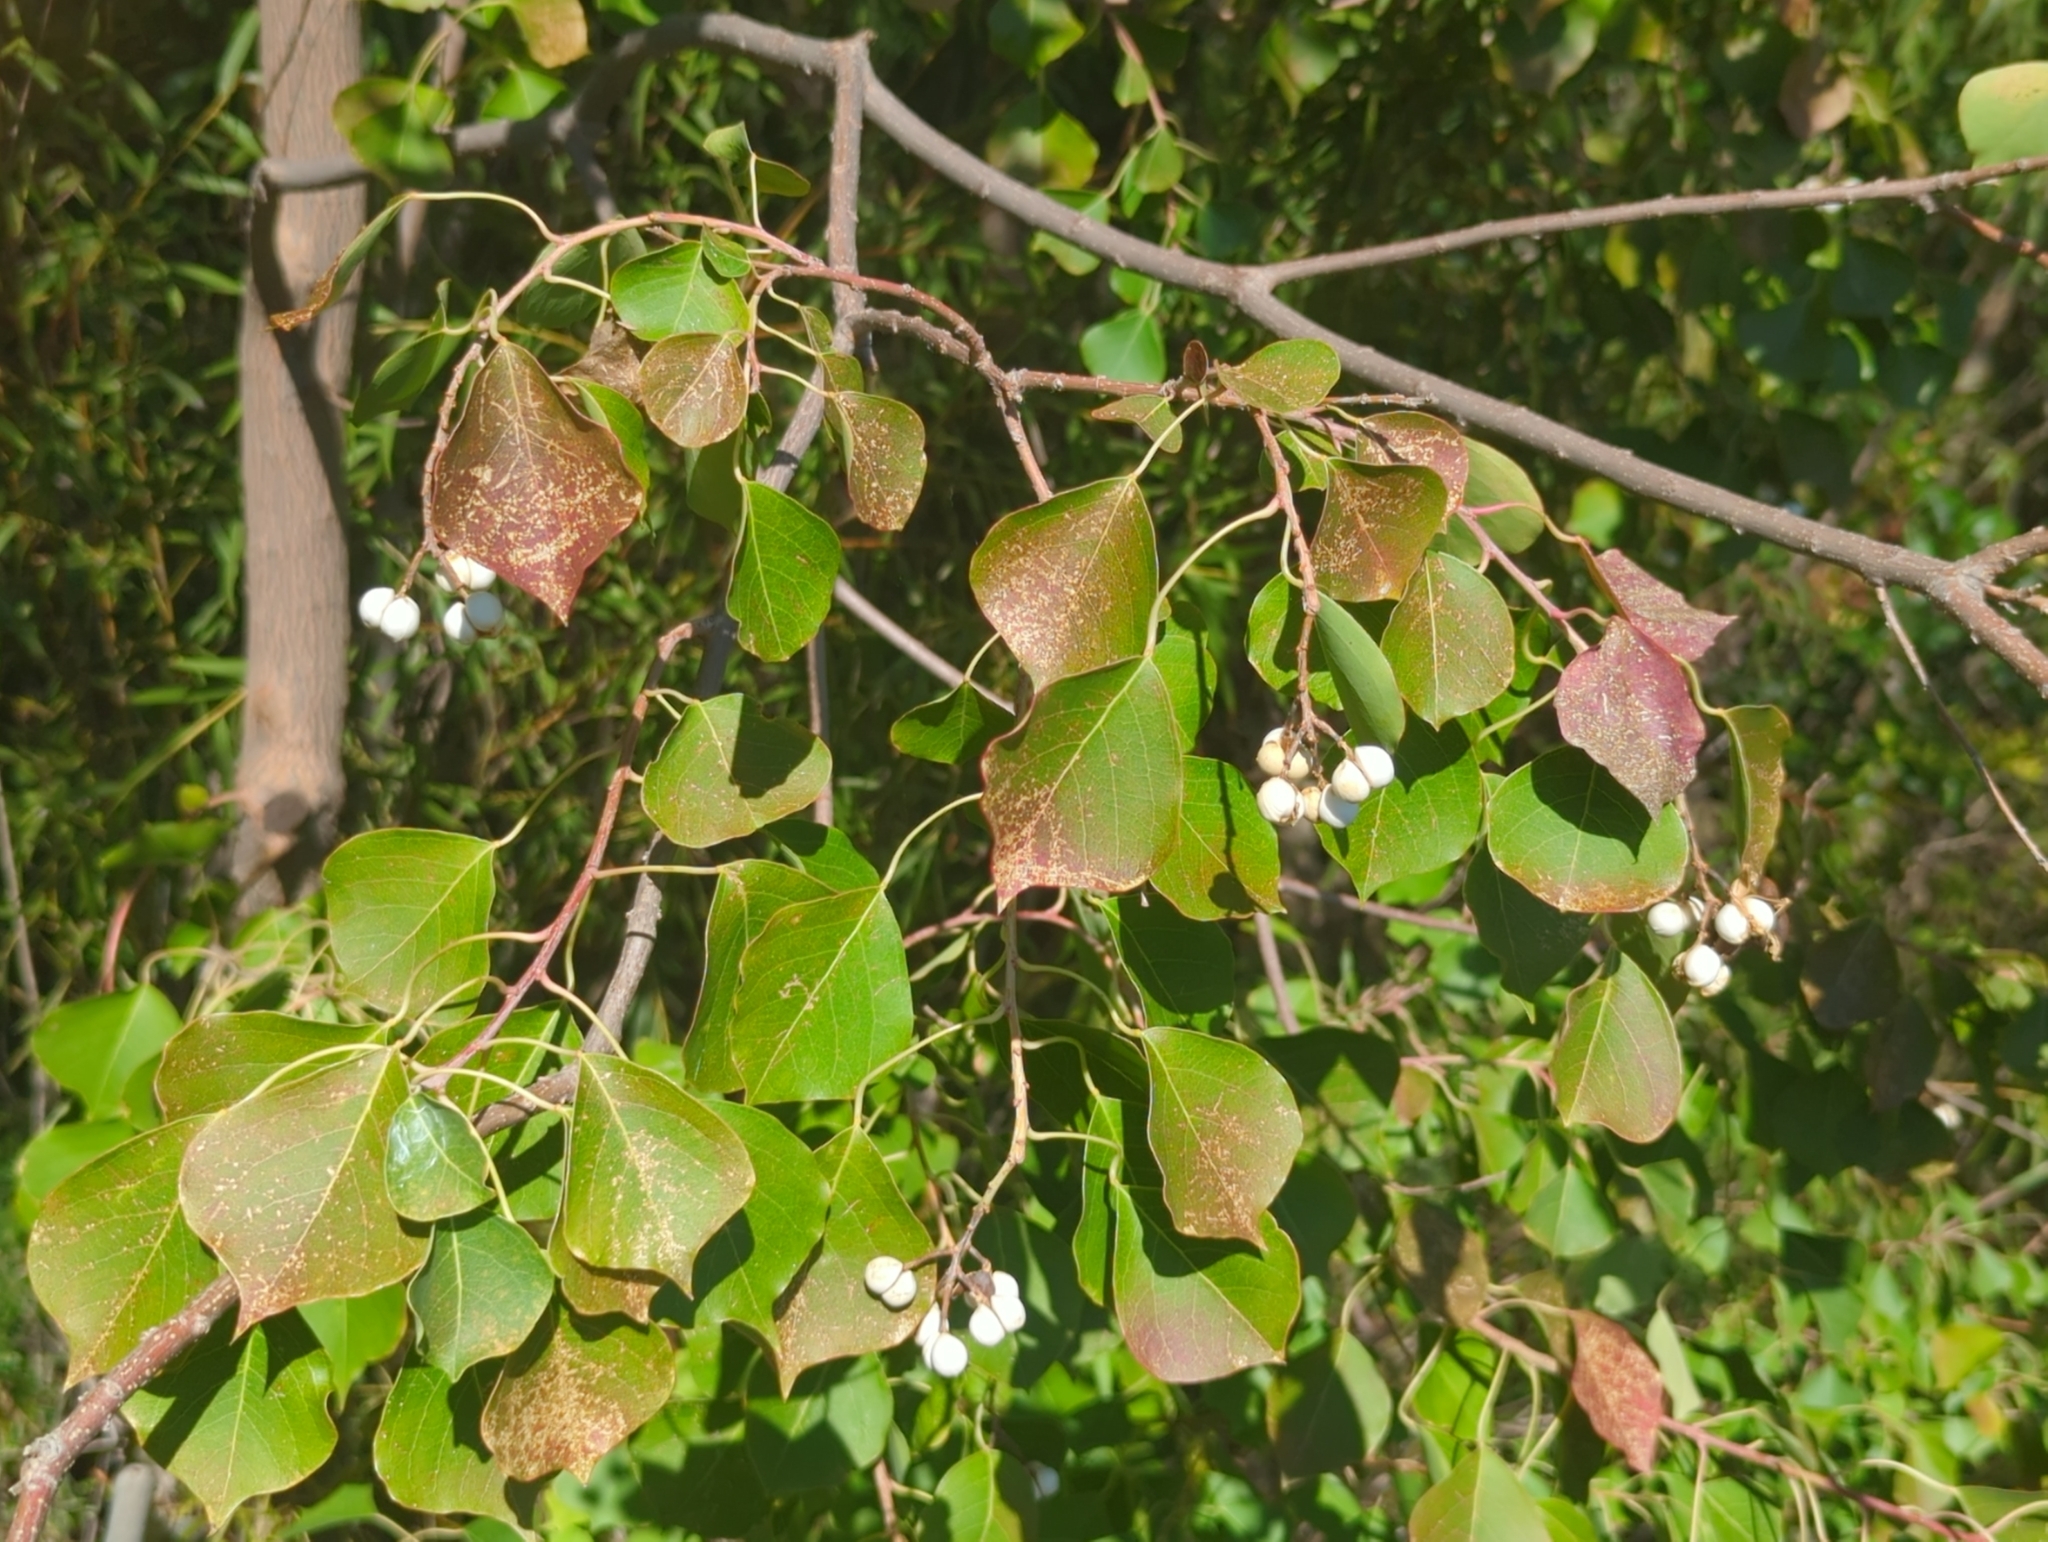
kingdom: Plantae
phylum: Tracheophyta
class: Magnoliopsida
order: Malpighiales
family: Euphorbiaceae
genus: Triadica
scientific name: Triadica sebifera
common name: Chinese tallow
